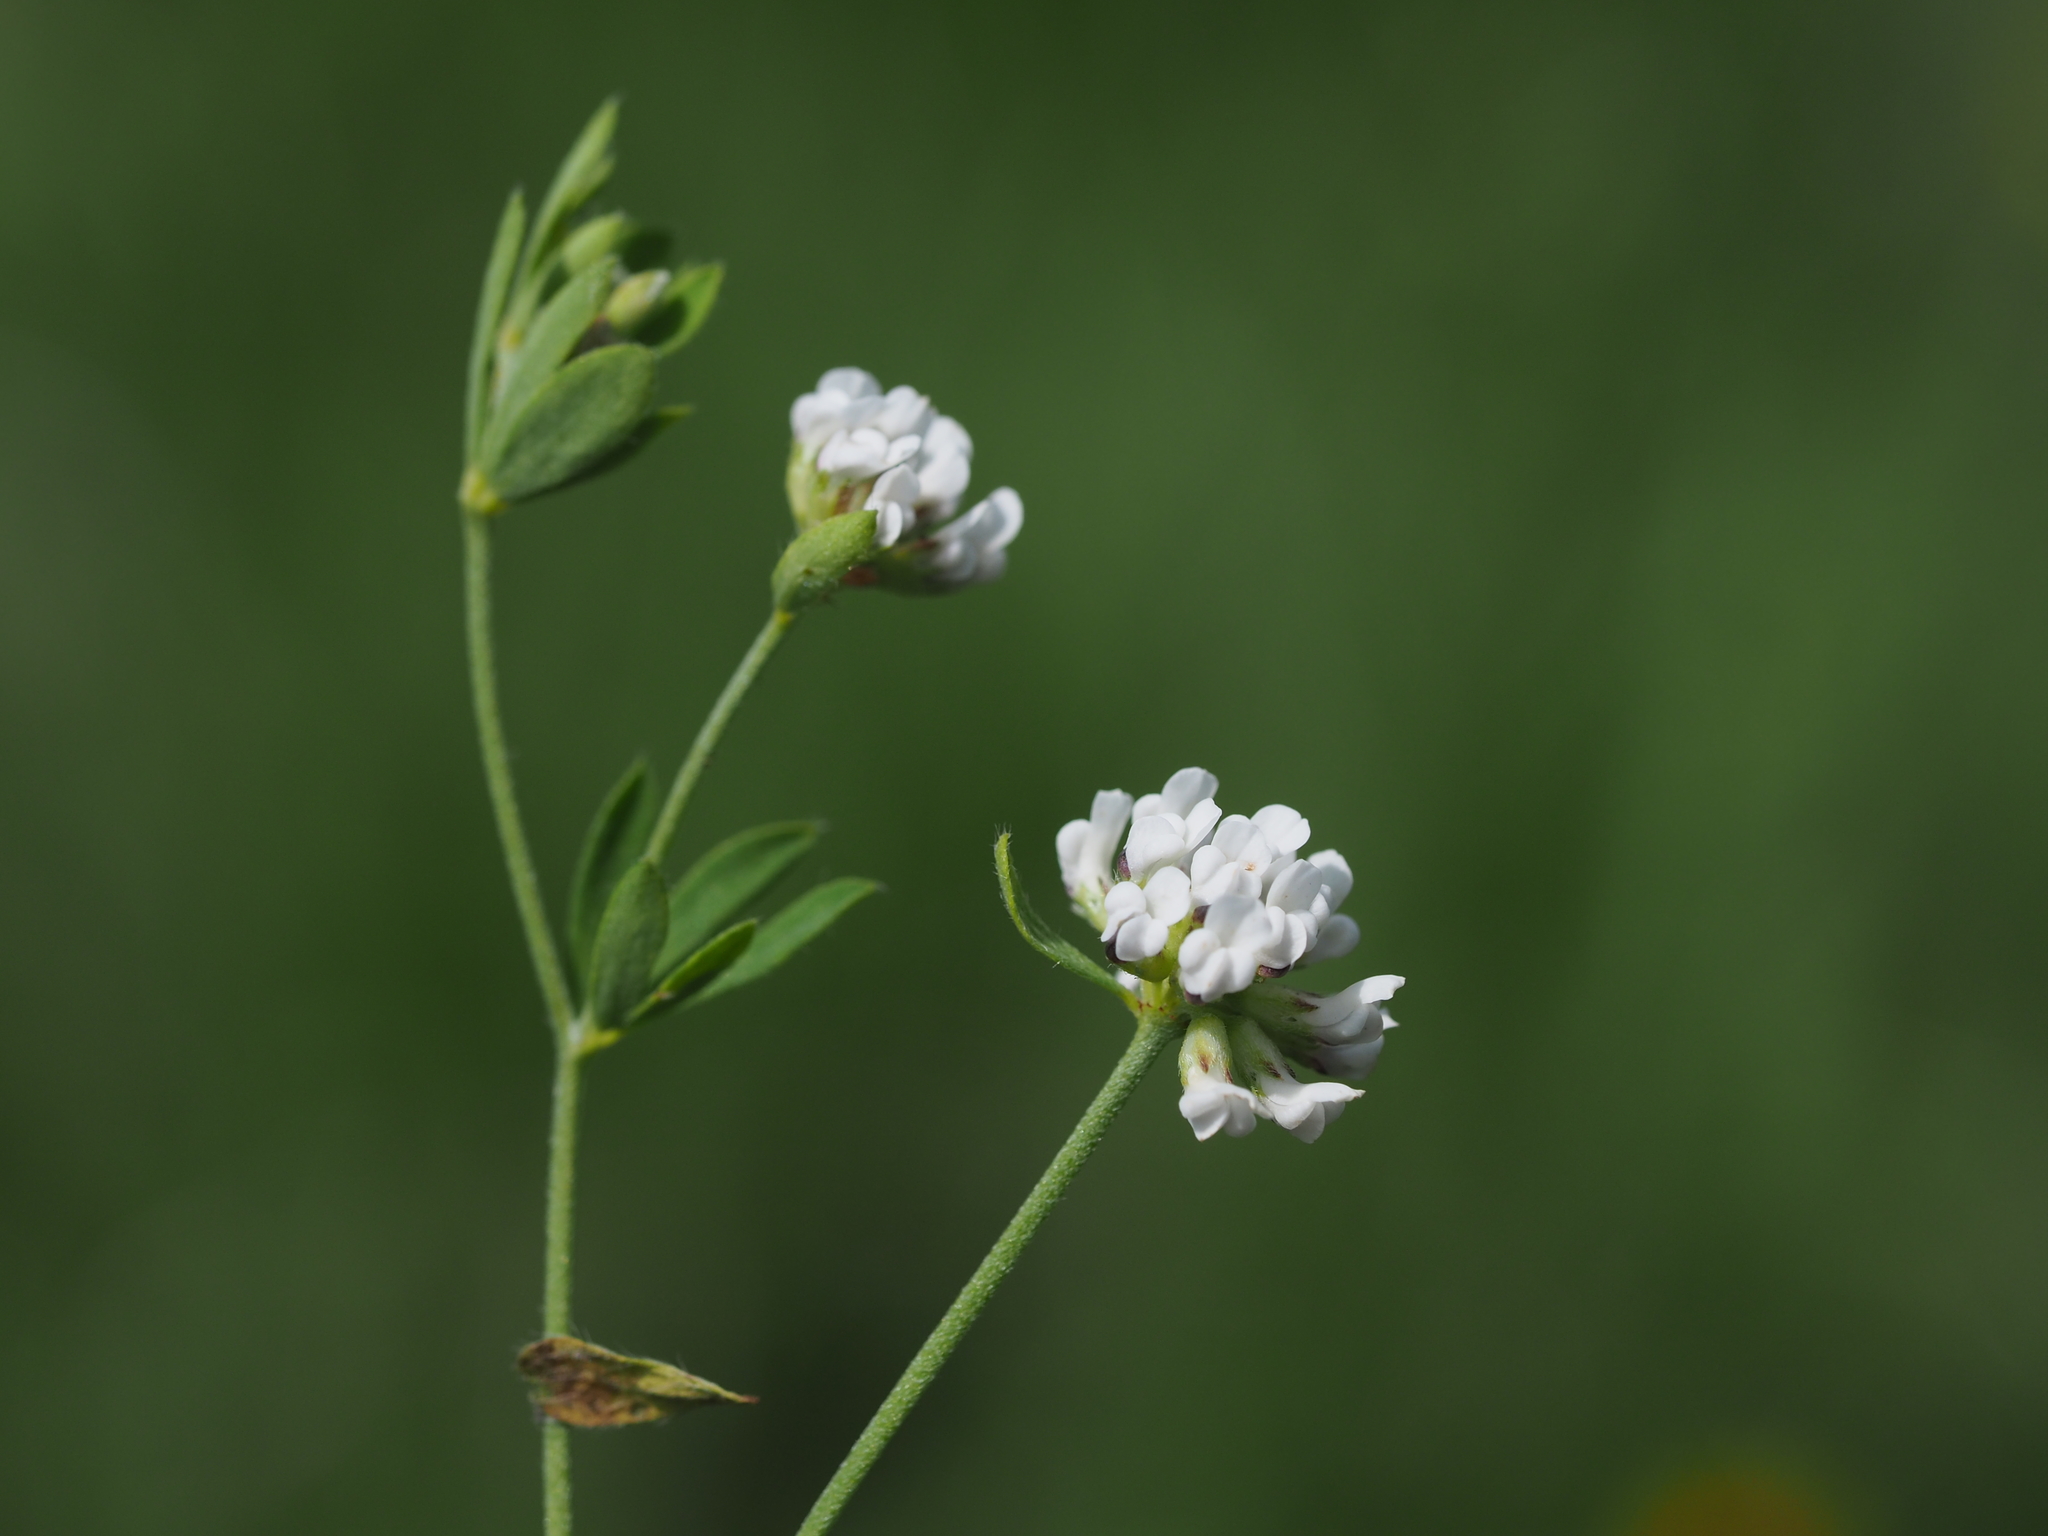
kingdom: Plantae
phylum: Tracheophyta
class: Magnoliopsida
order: Fabales
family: Fabaceae
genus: Lotus
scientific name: Lotus herbaceus
